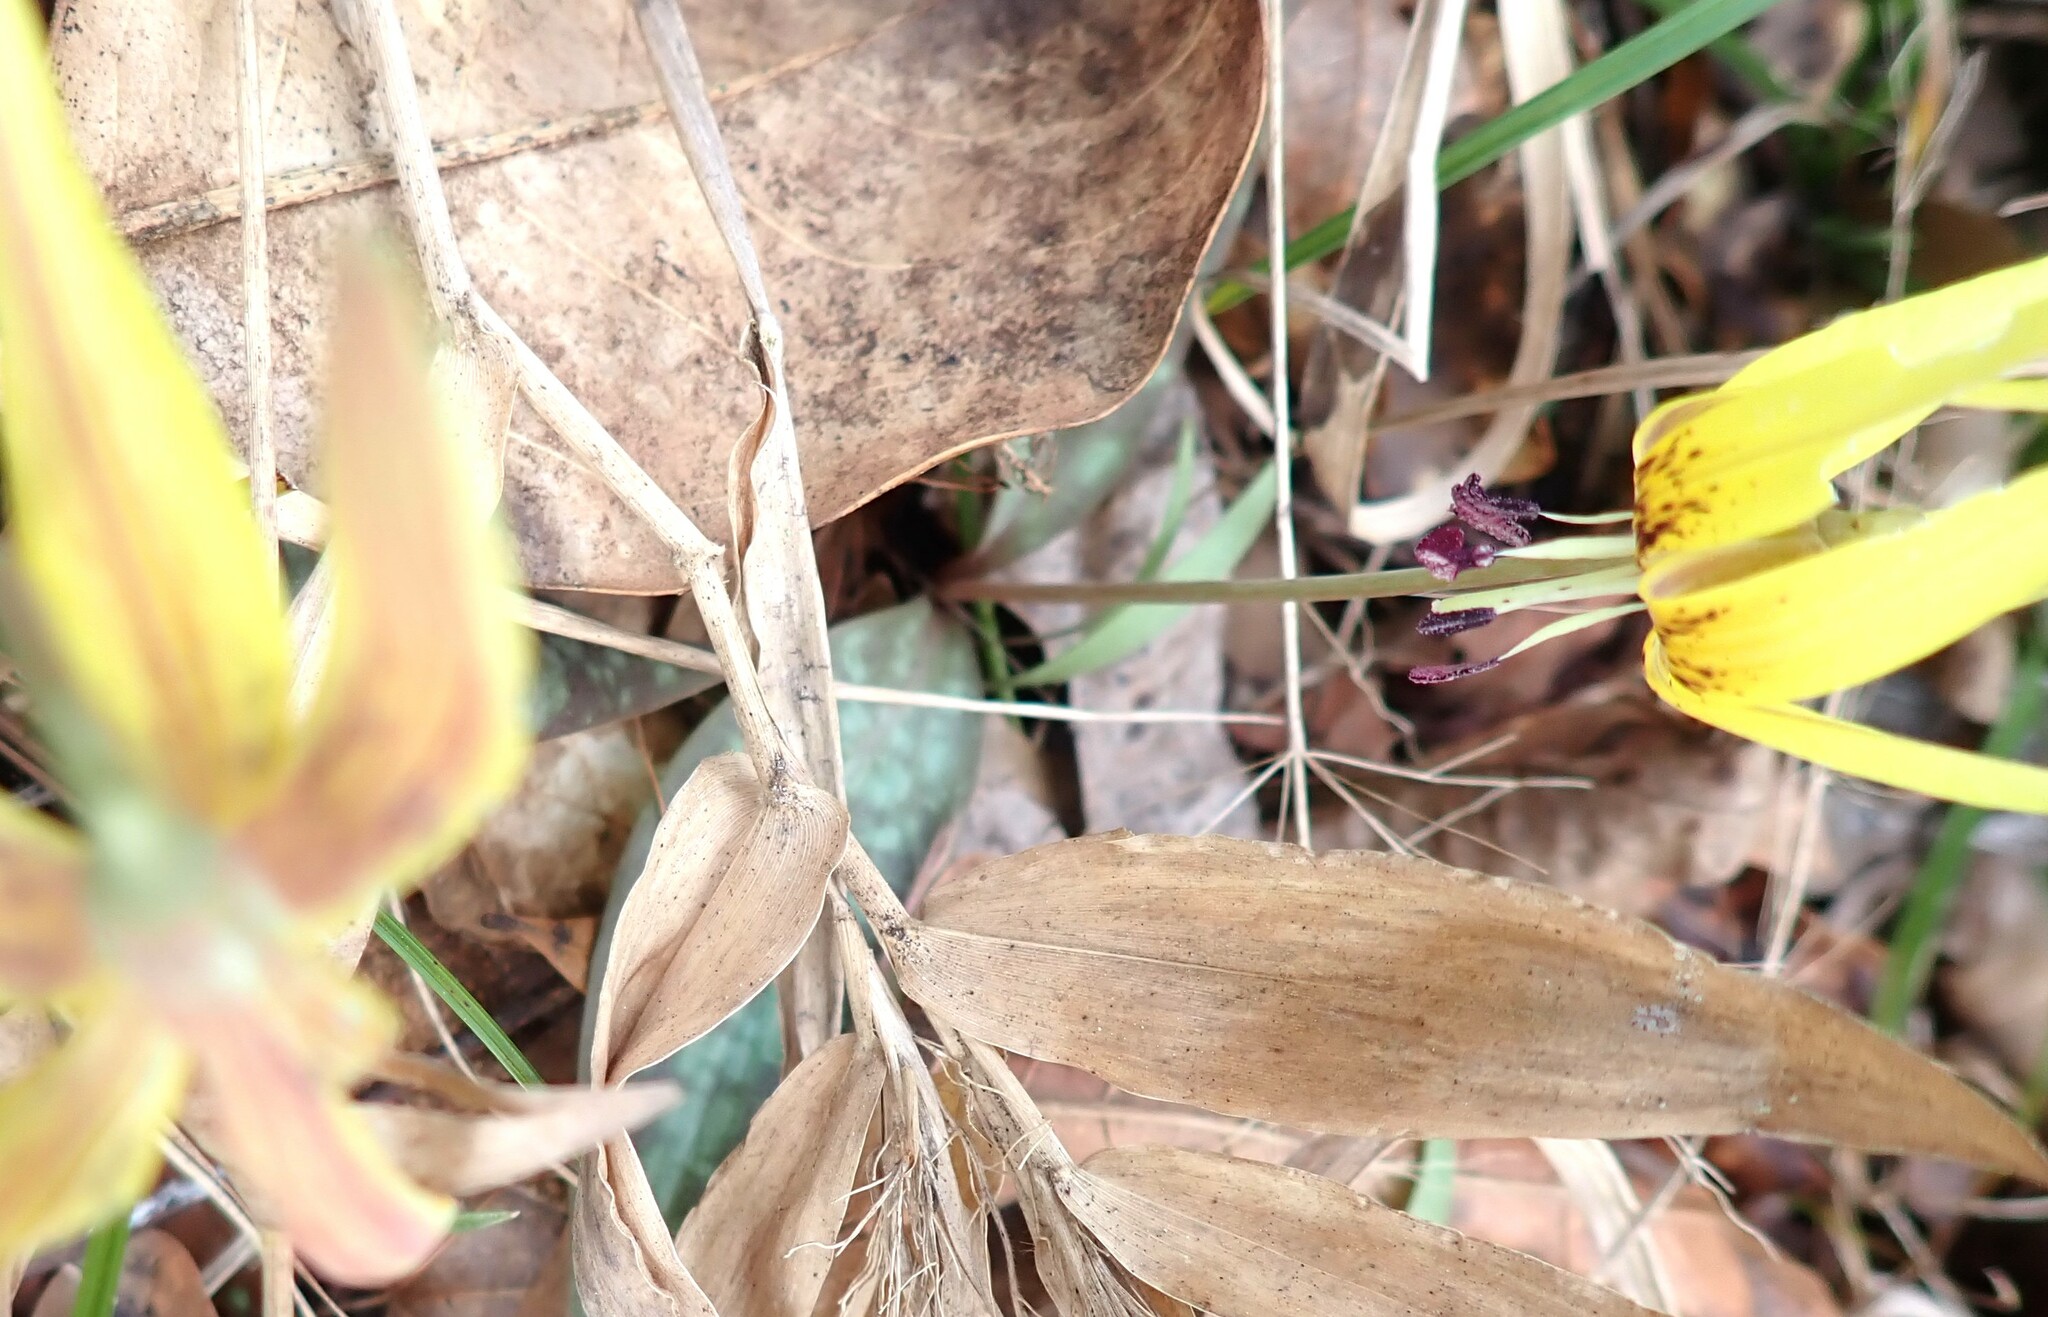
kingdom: Plantae
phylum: Tracheophyta
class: Liliopsida
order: Liliales
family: Liliaceae
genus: Erythronium
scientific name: Erythronium umbilicatum
